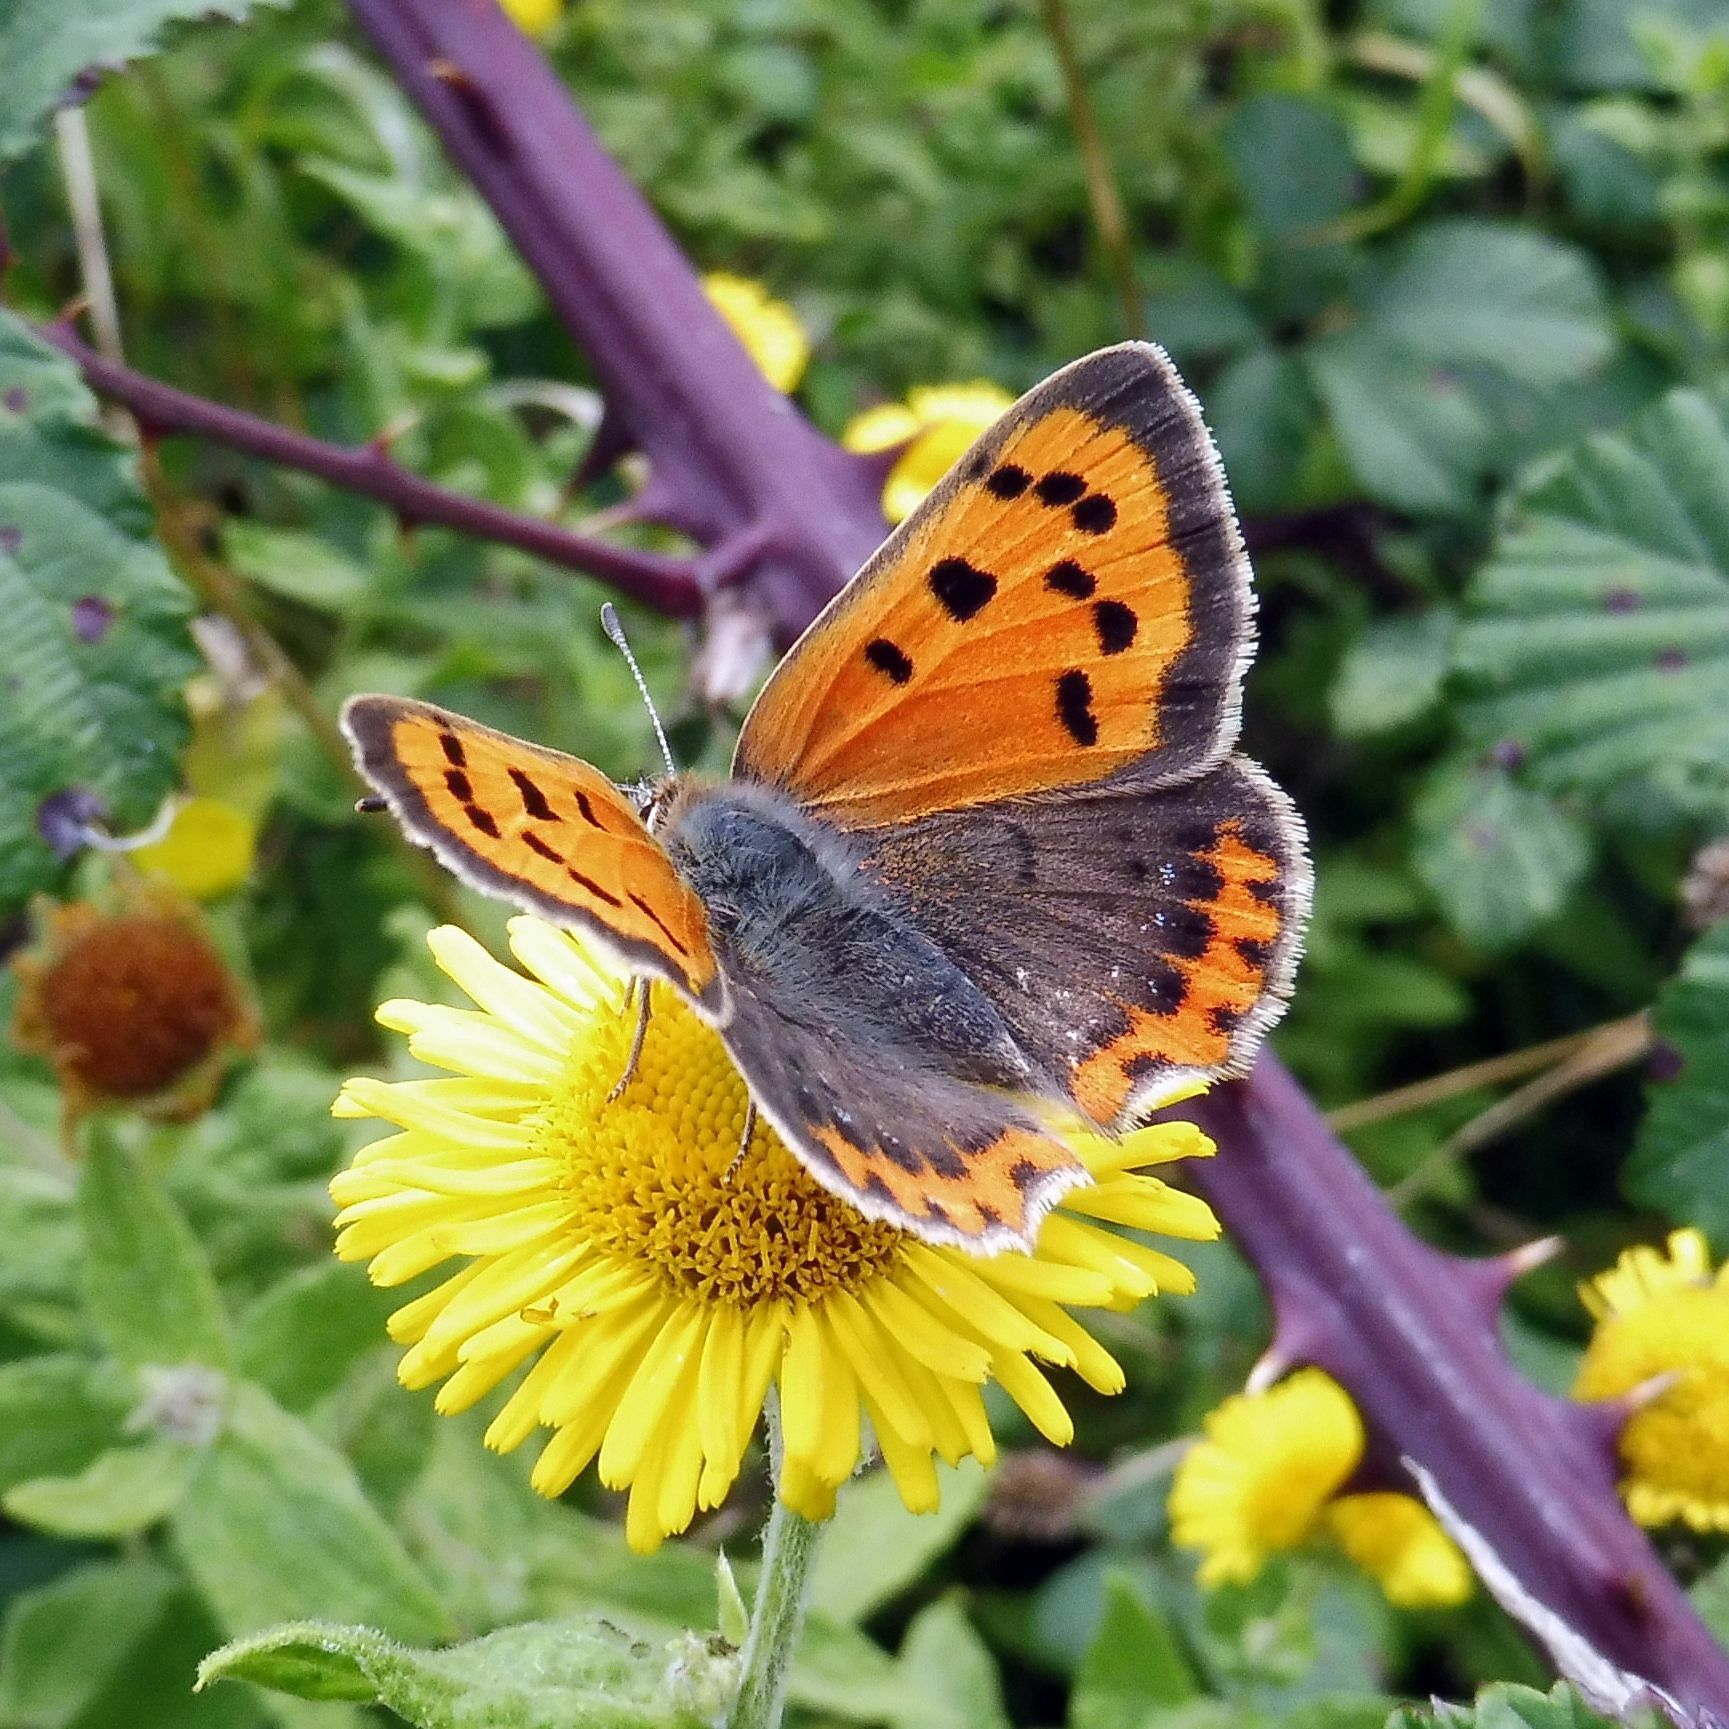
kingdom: Animalia
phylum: Arthropoda
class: Insecta
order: Lepidoptera
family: Lycaenidae
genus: Lycaena
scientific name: Lycaena phlaeas
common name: Small copper
